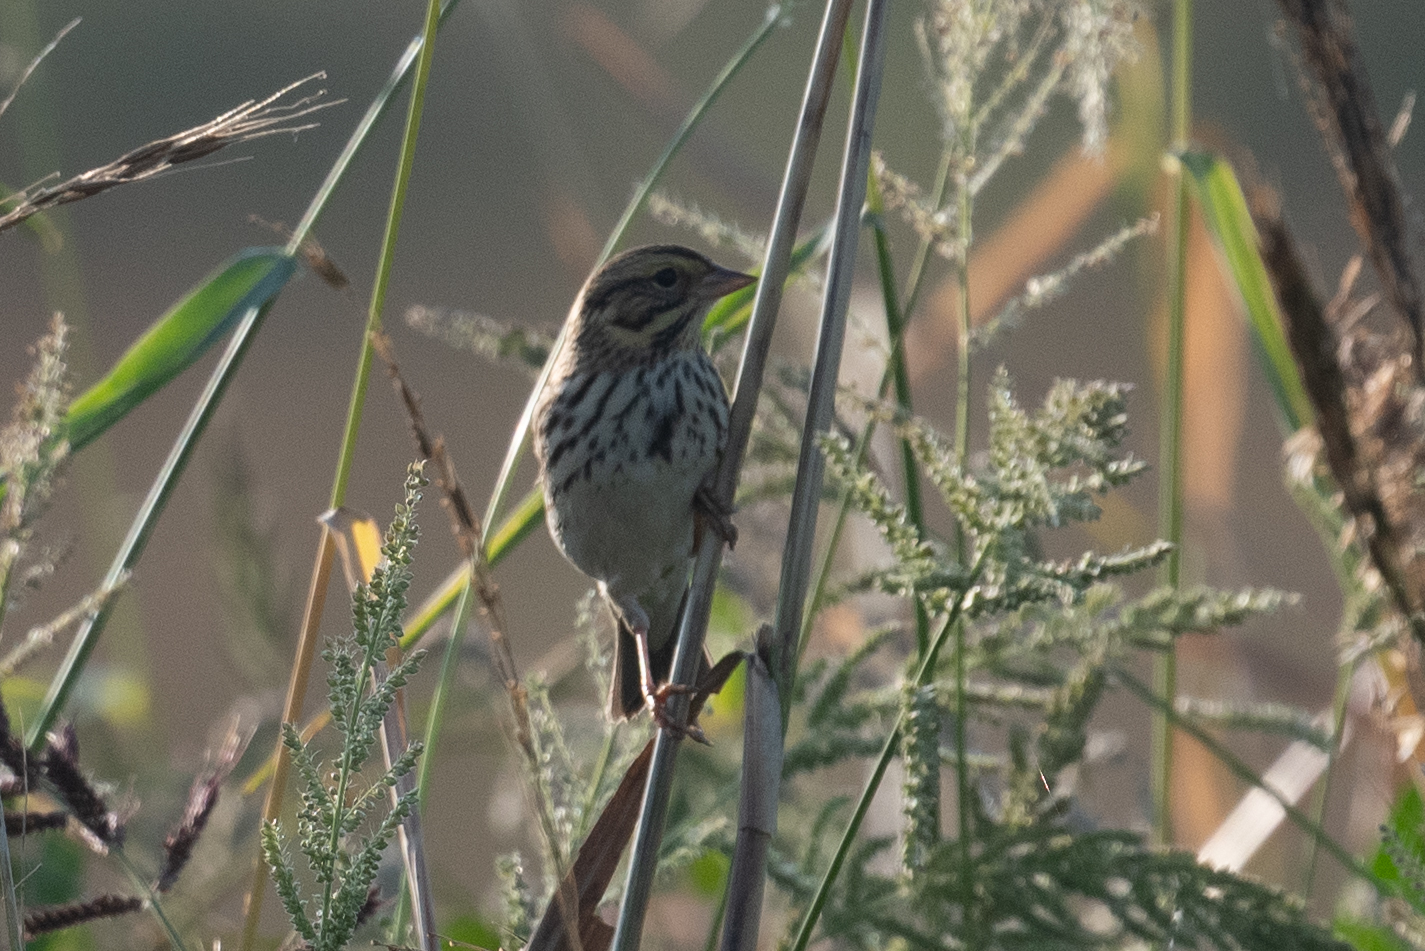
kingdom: Animalia
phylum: Chordata
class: Aves
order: Passeriformes
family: Passerellidae
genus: Passerculus
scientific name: Passerculus sandwichensis
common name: Savannah sparrow
